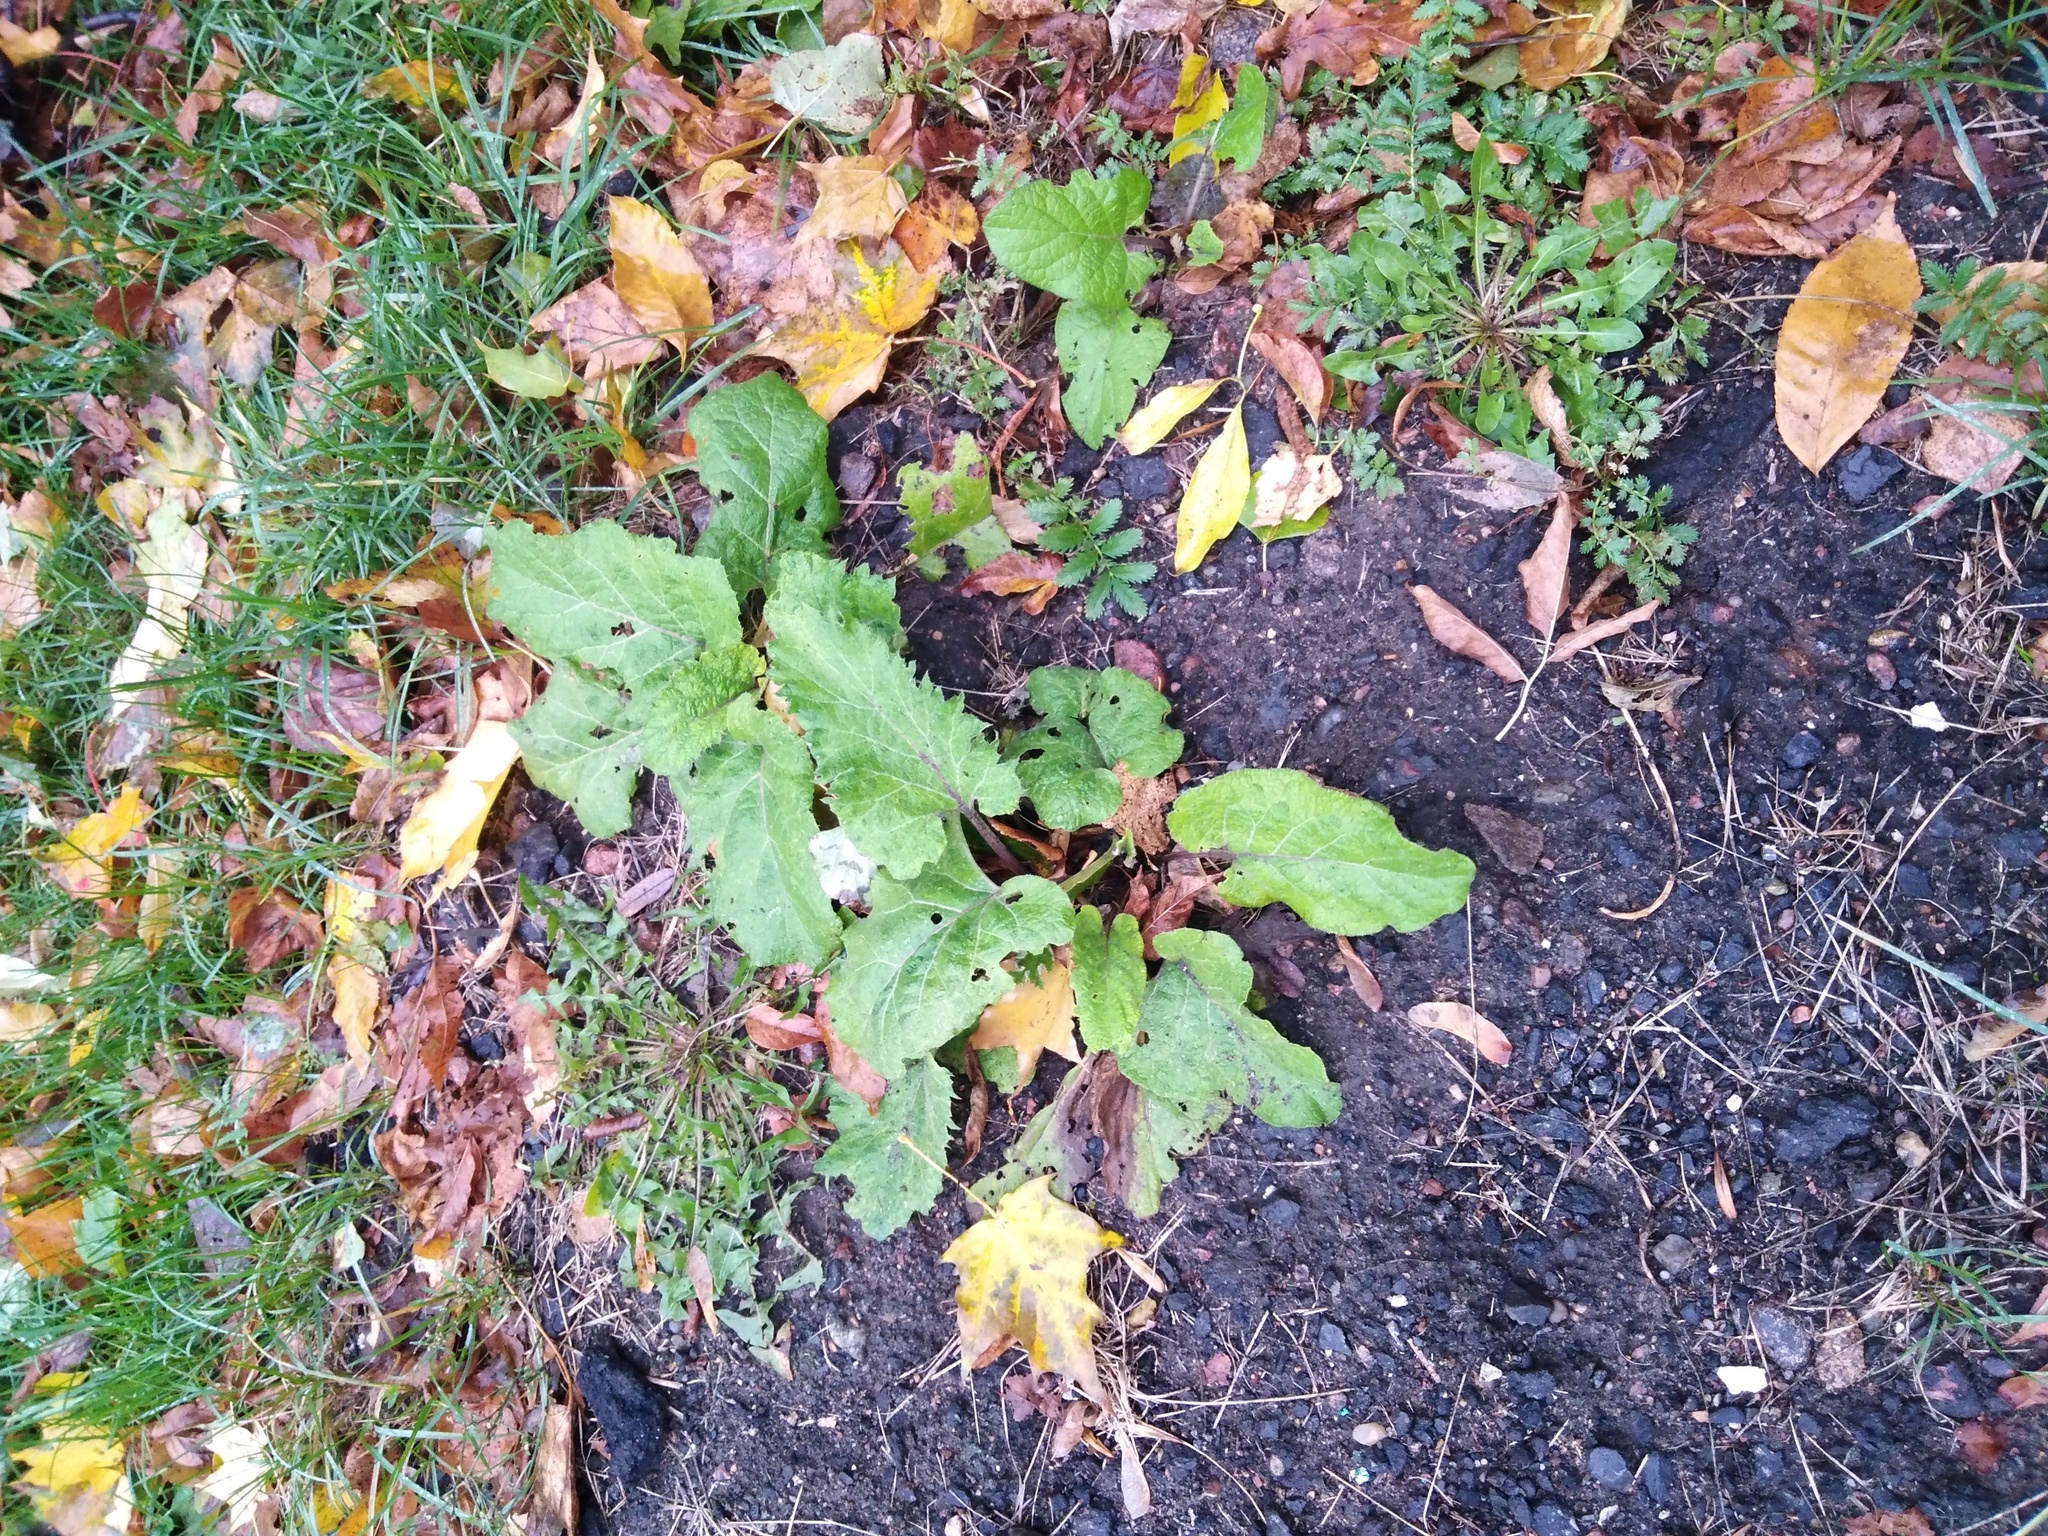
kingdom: Plantae
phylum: Tracheophyta
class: Magnoliopsida
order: Asterales
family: Asteraceae
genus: Arctium
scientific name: Arctium
